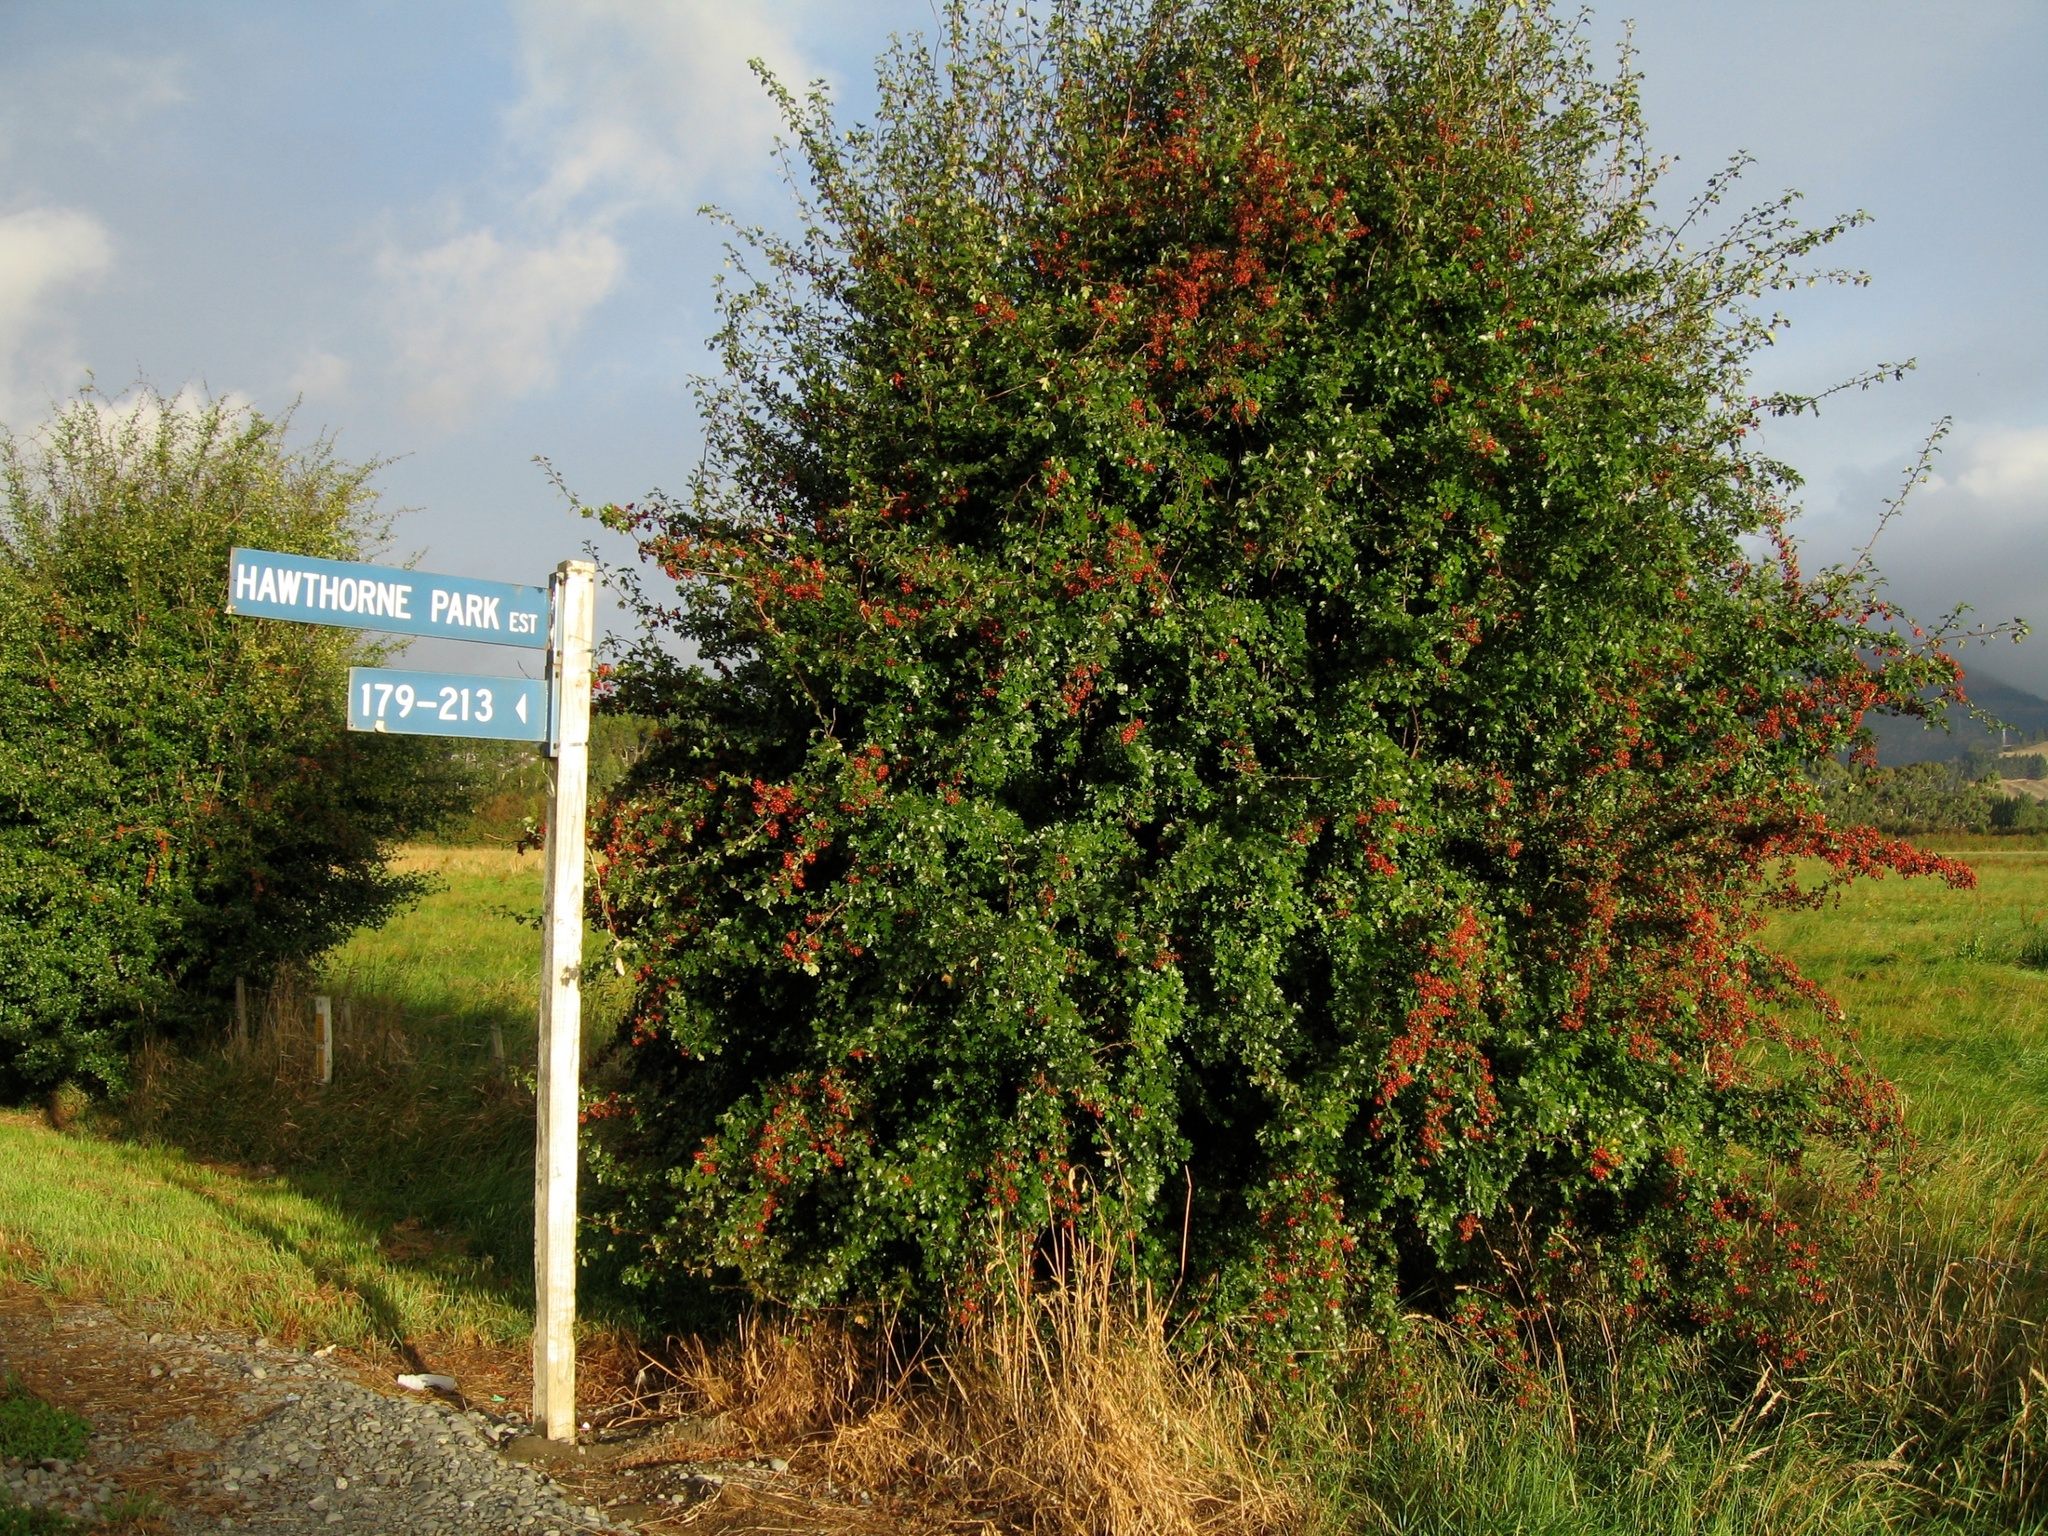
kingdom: Plantae
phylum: Tracheophyta
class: Magnoliopsida
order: Rosales
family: Rosaceae
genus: Crataegus
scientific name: Crataegus monogyna
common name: Hawthorn
